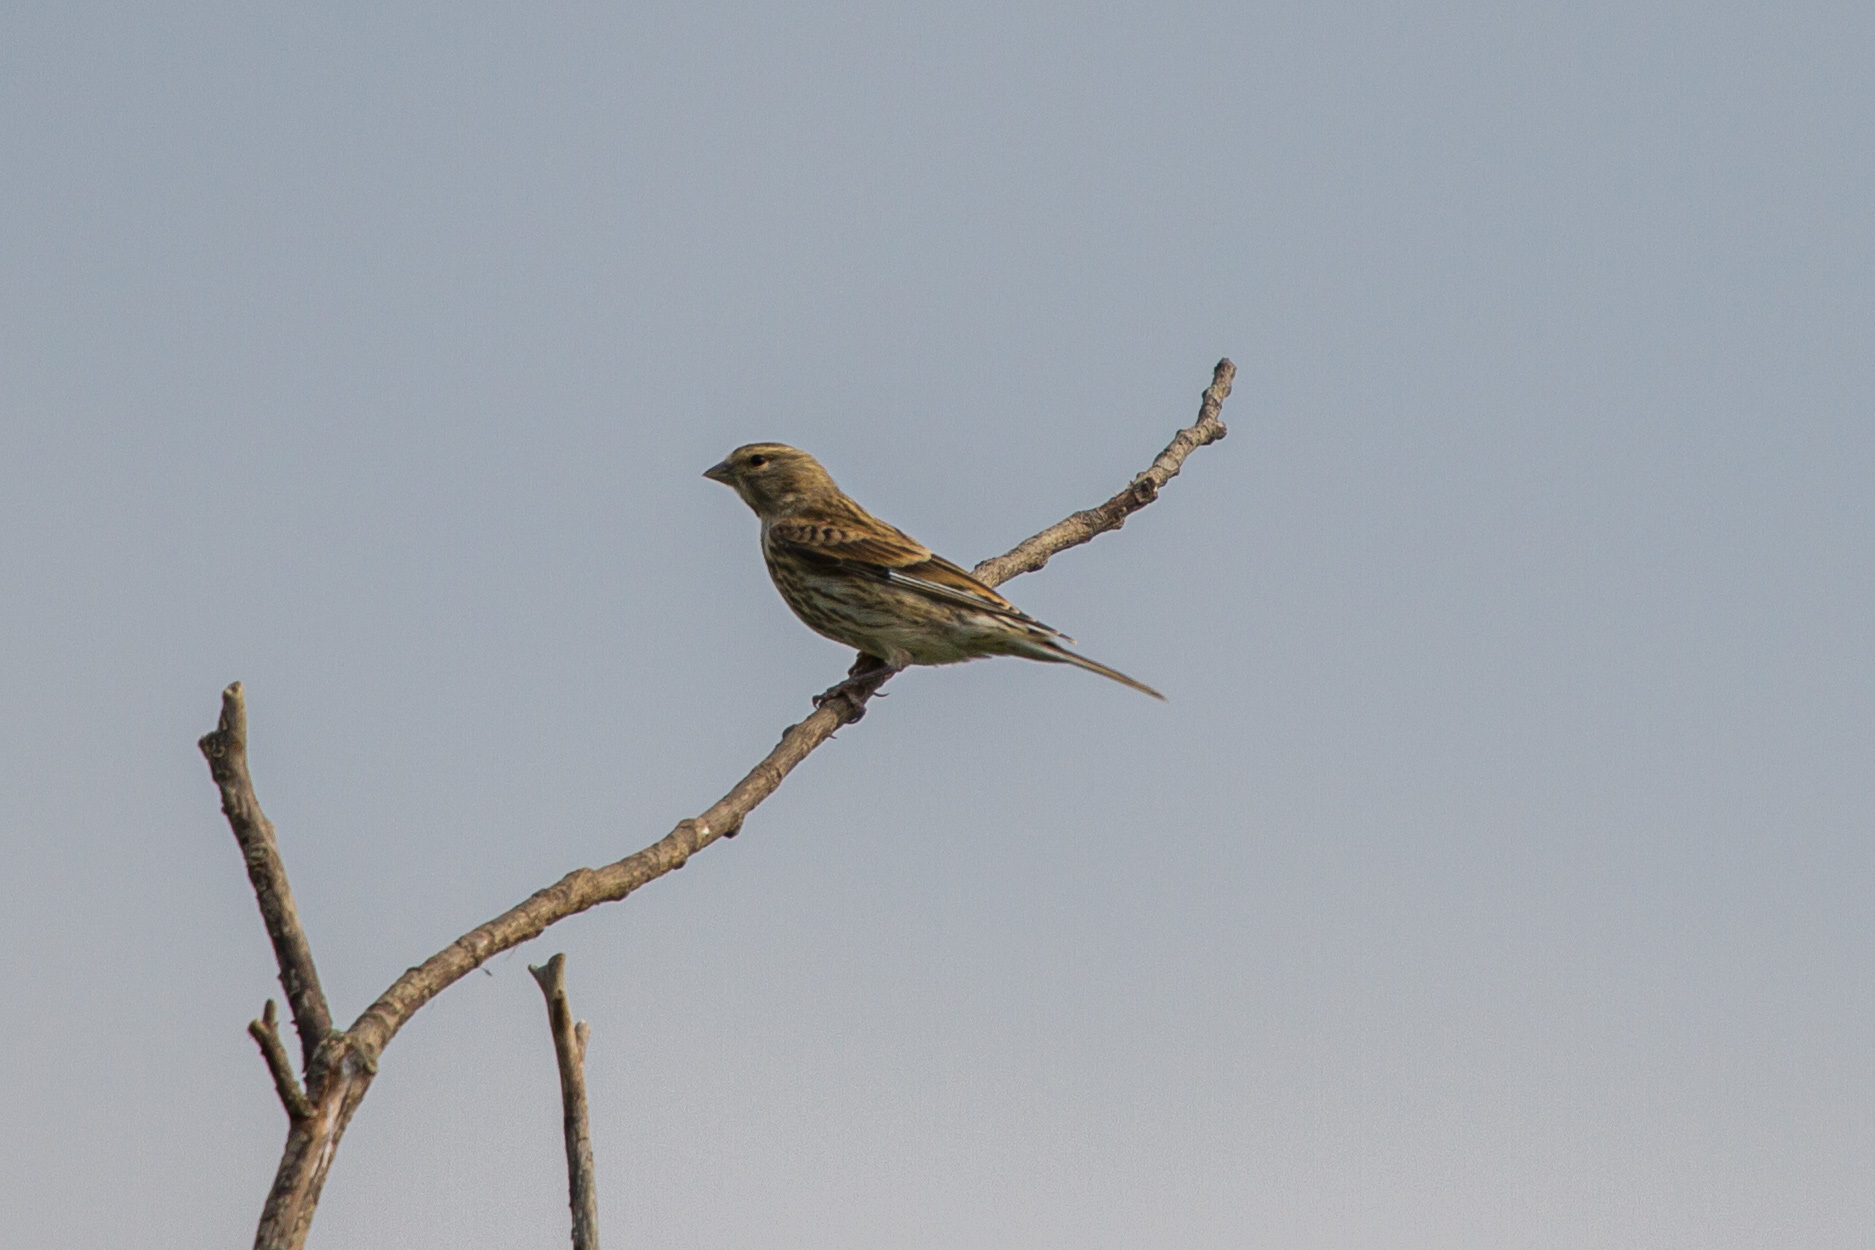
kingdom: Animalia
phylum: Chordata
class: Aves
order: Passeriformes
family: Fringillidae
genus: Linaria
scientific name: Linaria cannabina
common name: Common linnet
